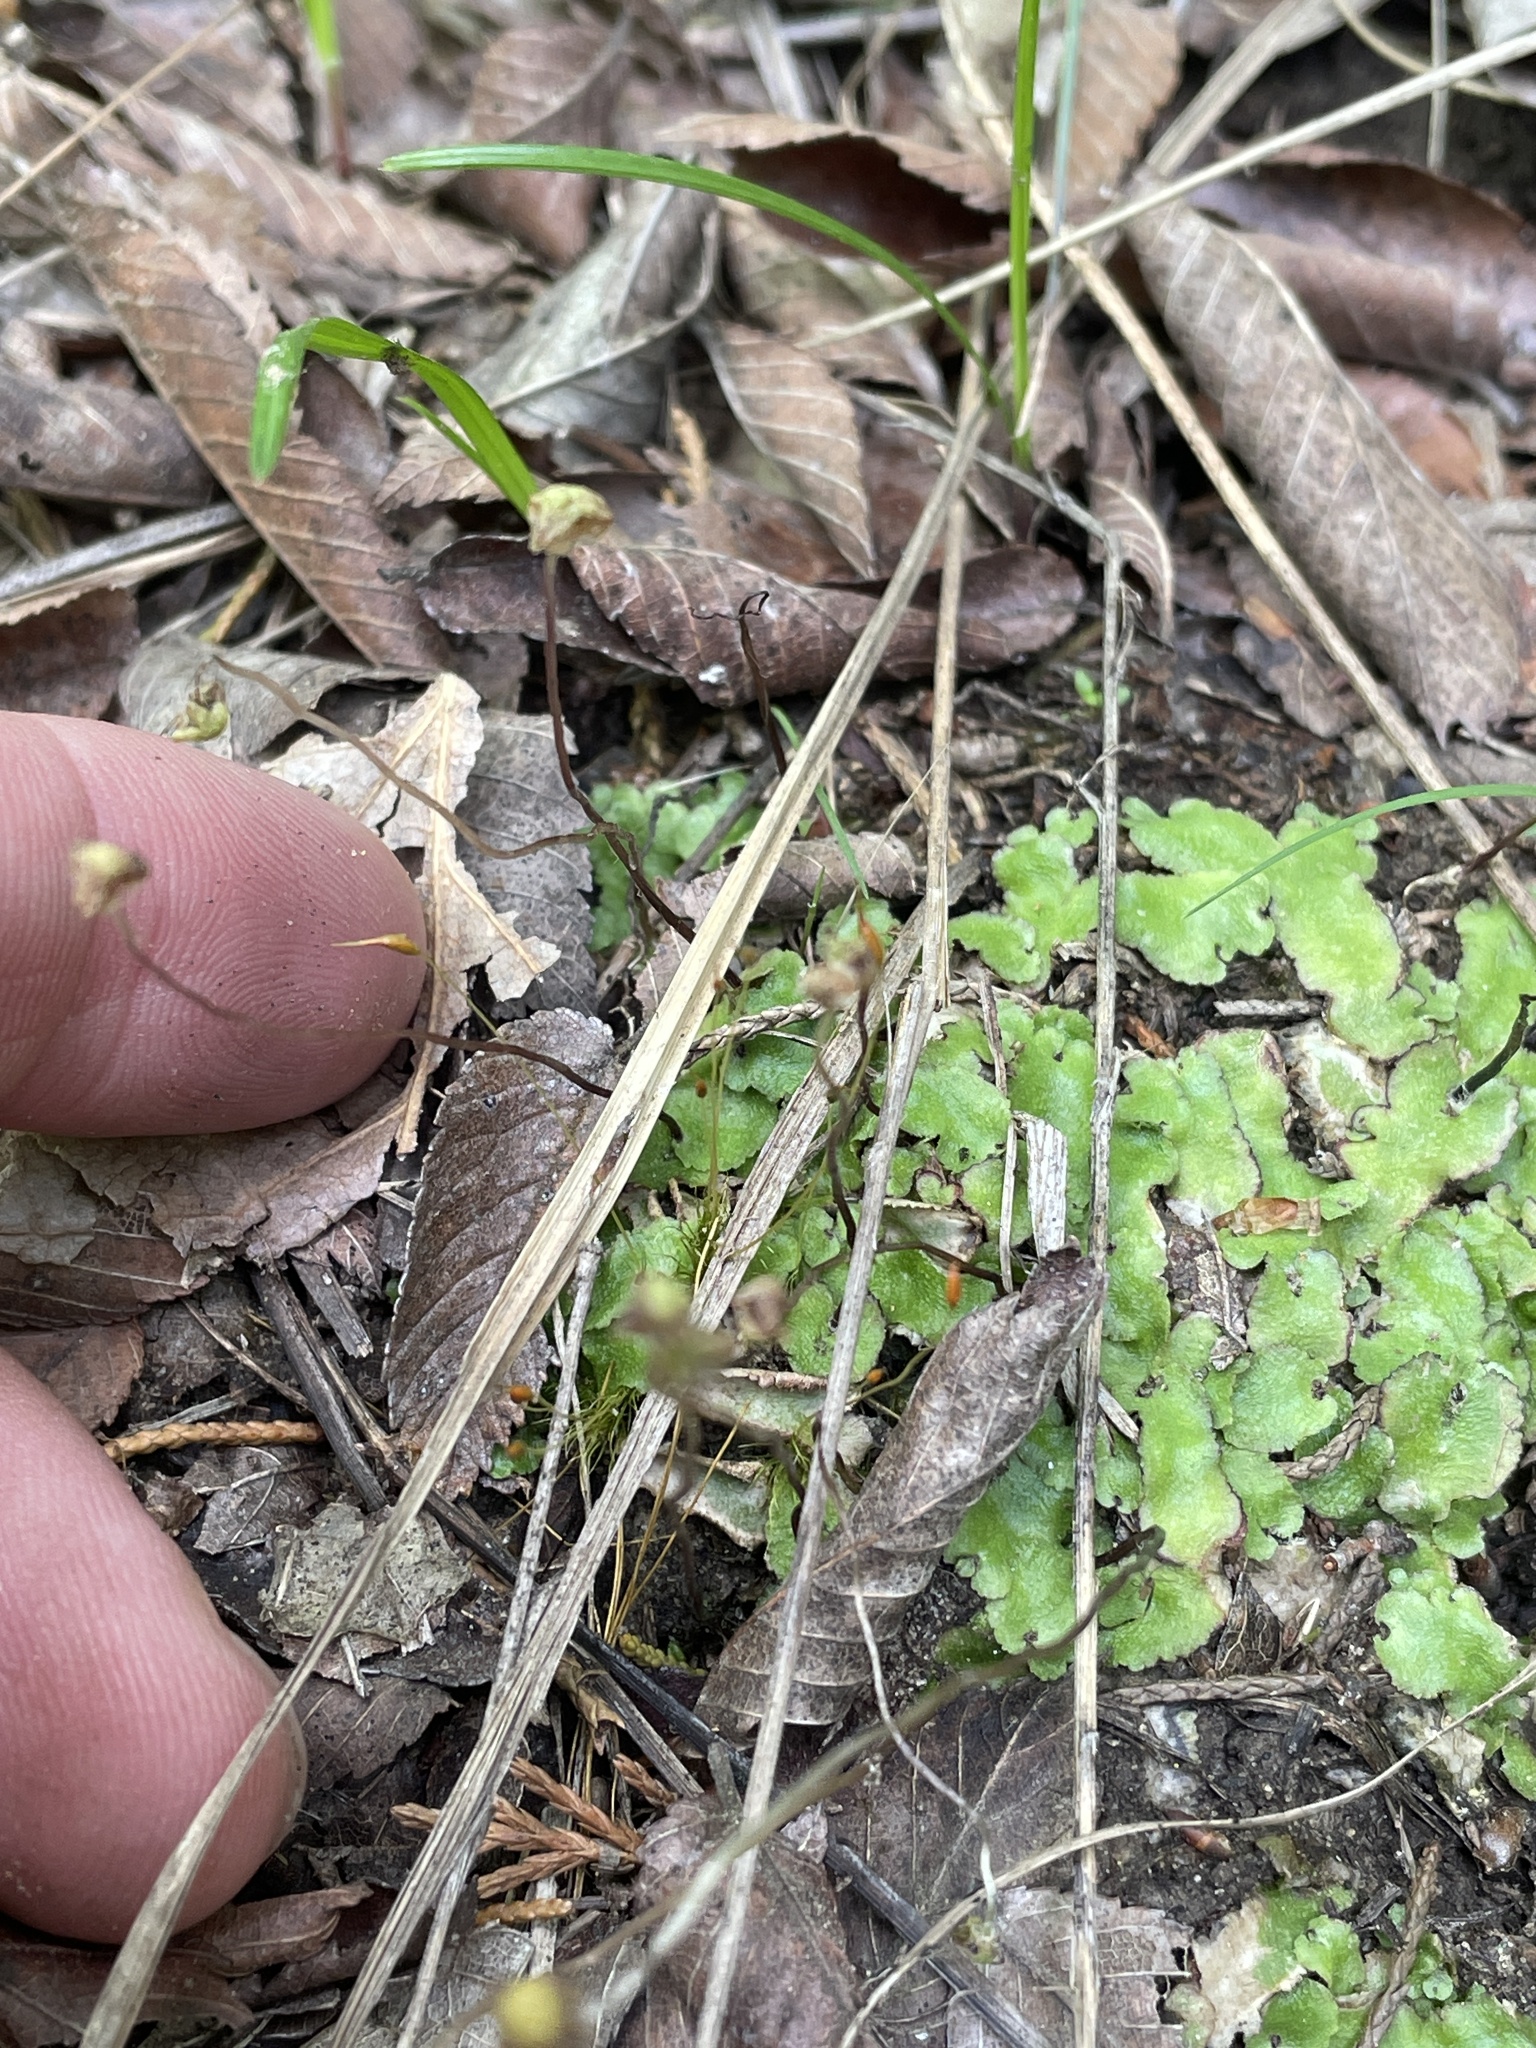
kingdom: Plantae
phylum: Marchantiophyta
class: Marchantiopsida
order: Marchantiales
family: Aytoniaceae
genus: Reboulia
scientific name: Reboulia hemisphaerica
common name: Purple-margined liverwort
